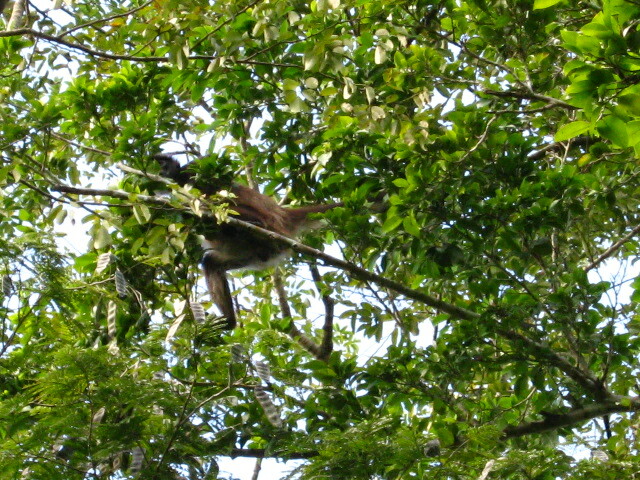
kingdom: Animalia
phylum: Chordata
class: Mammalia
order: Primates
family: Atelidae
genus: Ateles
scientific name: Ateles geoffroyi
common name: Black-handed spider monkey
